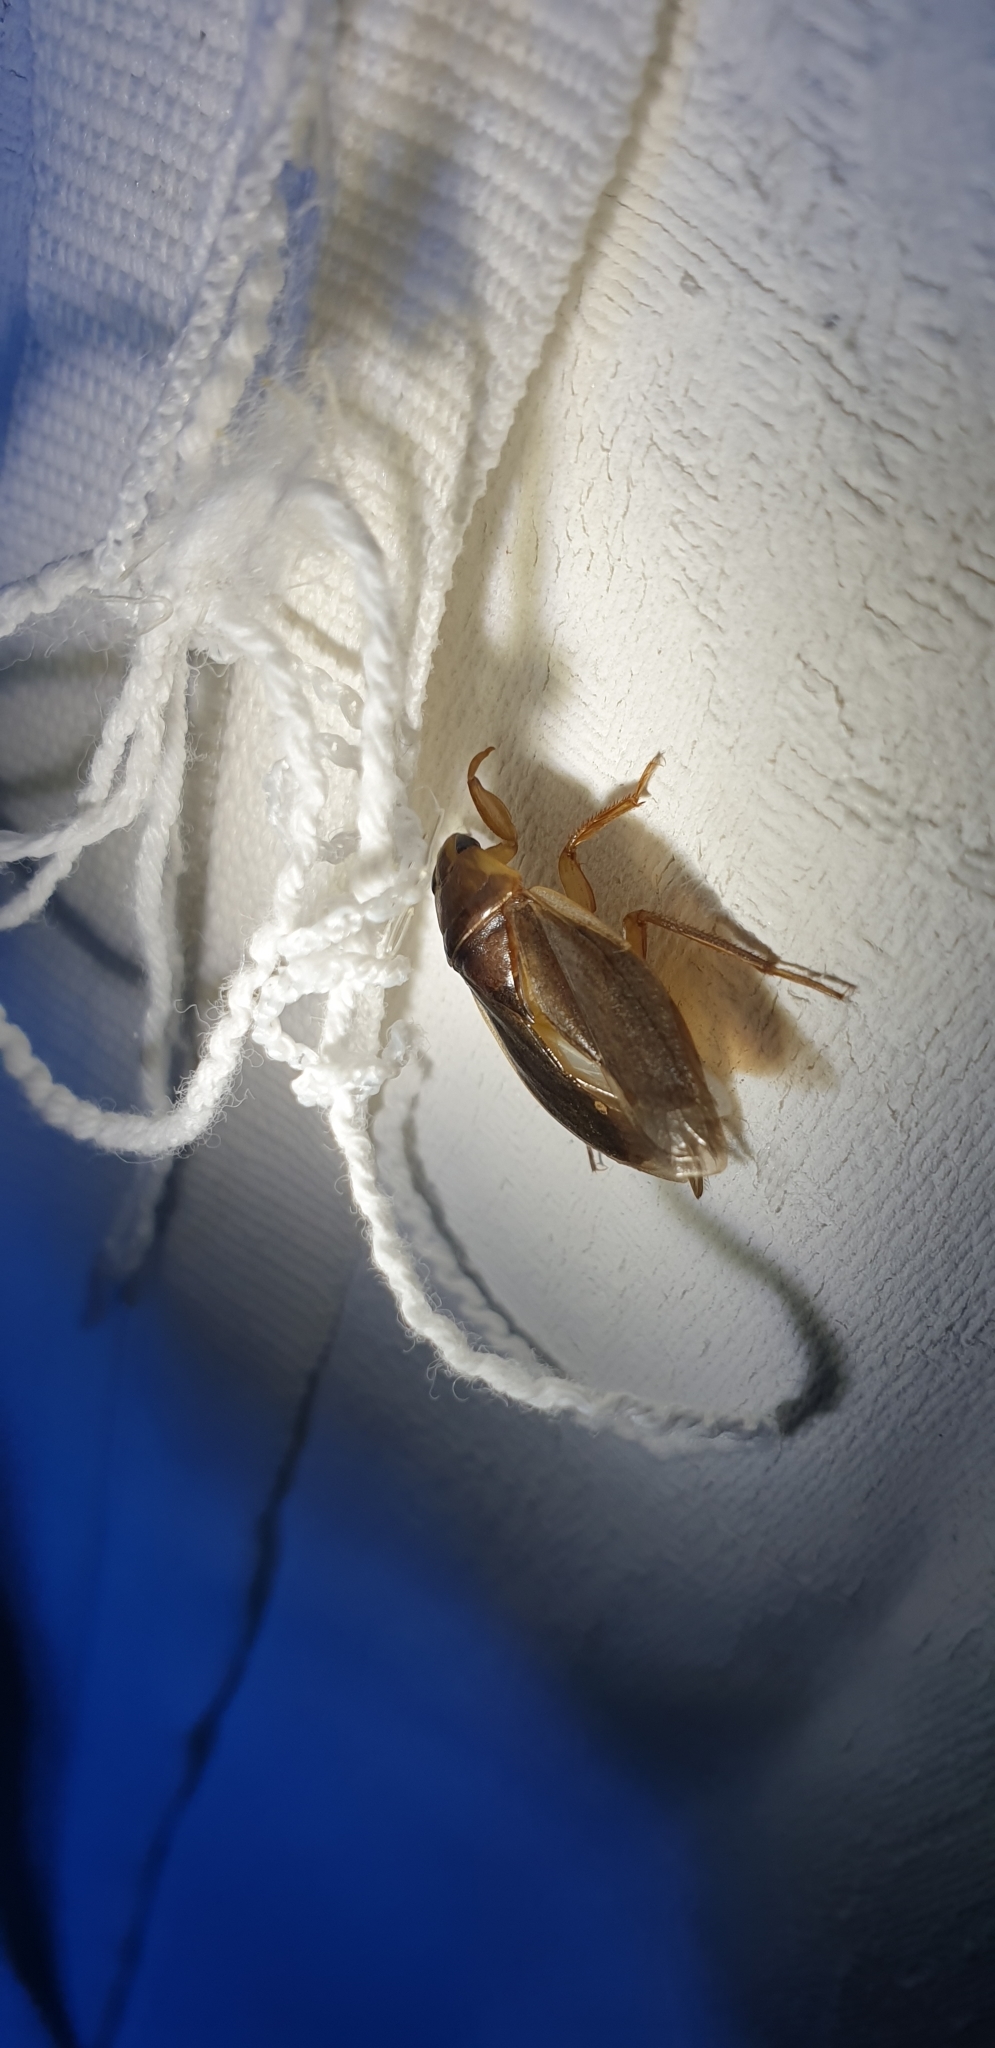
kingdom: Animalia
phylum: Arthropoda
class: Insecta
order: Hemiptera
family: Belostomatidae
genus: Diplonychus
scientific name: Diplonychus eques
